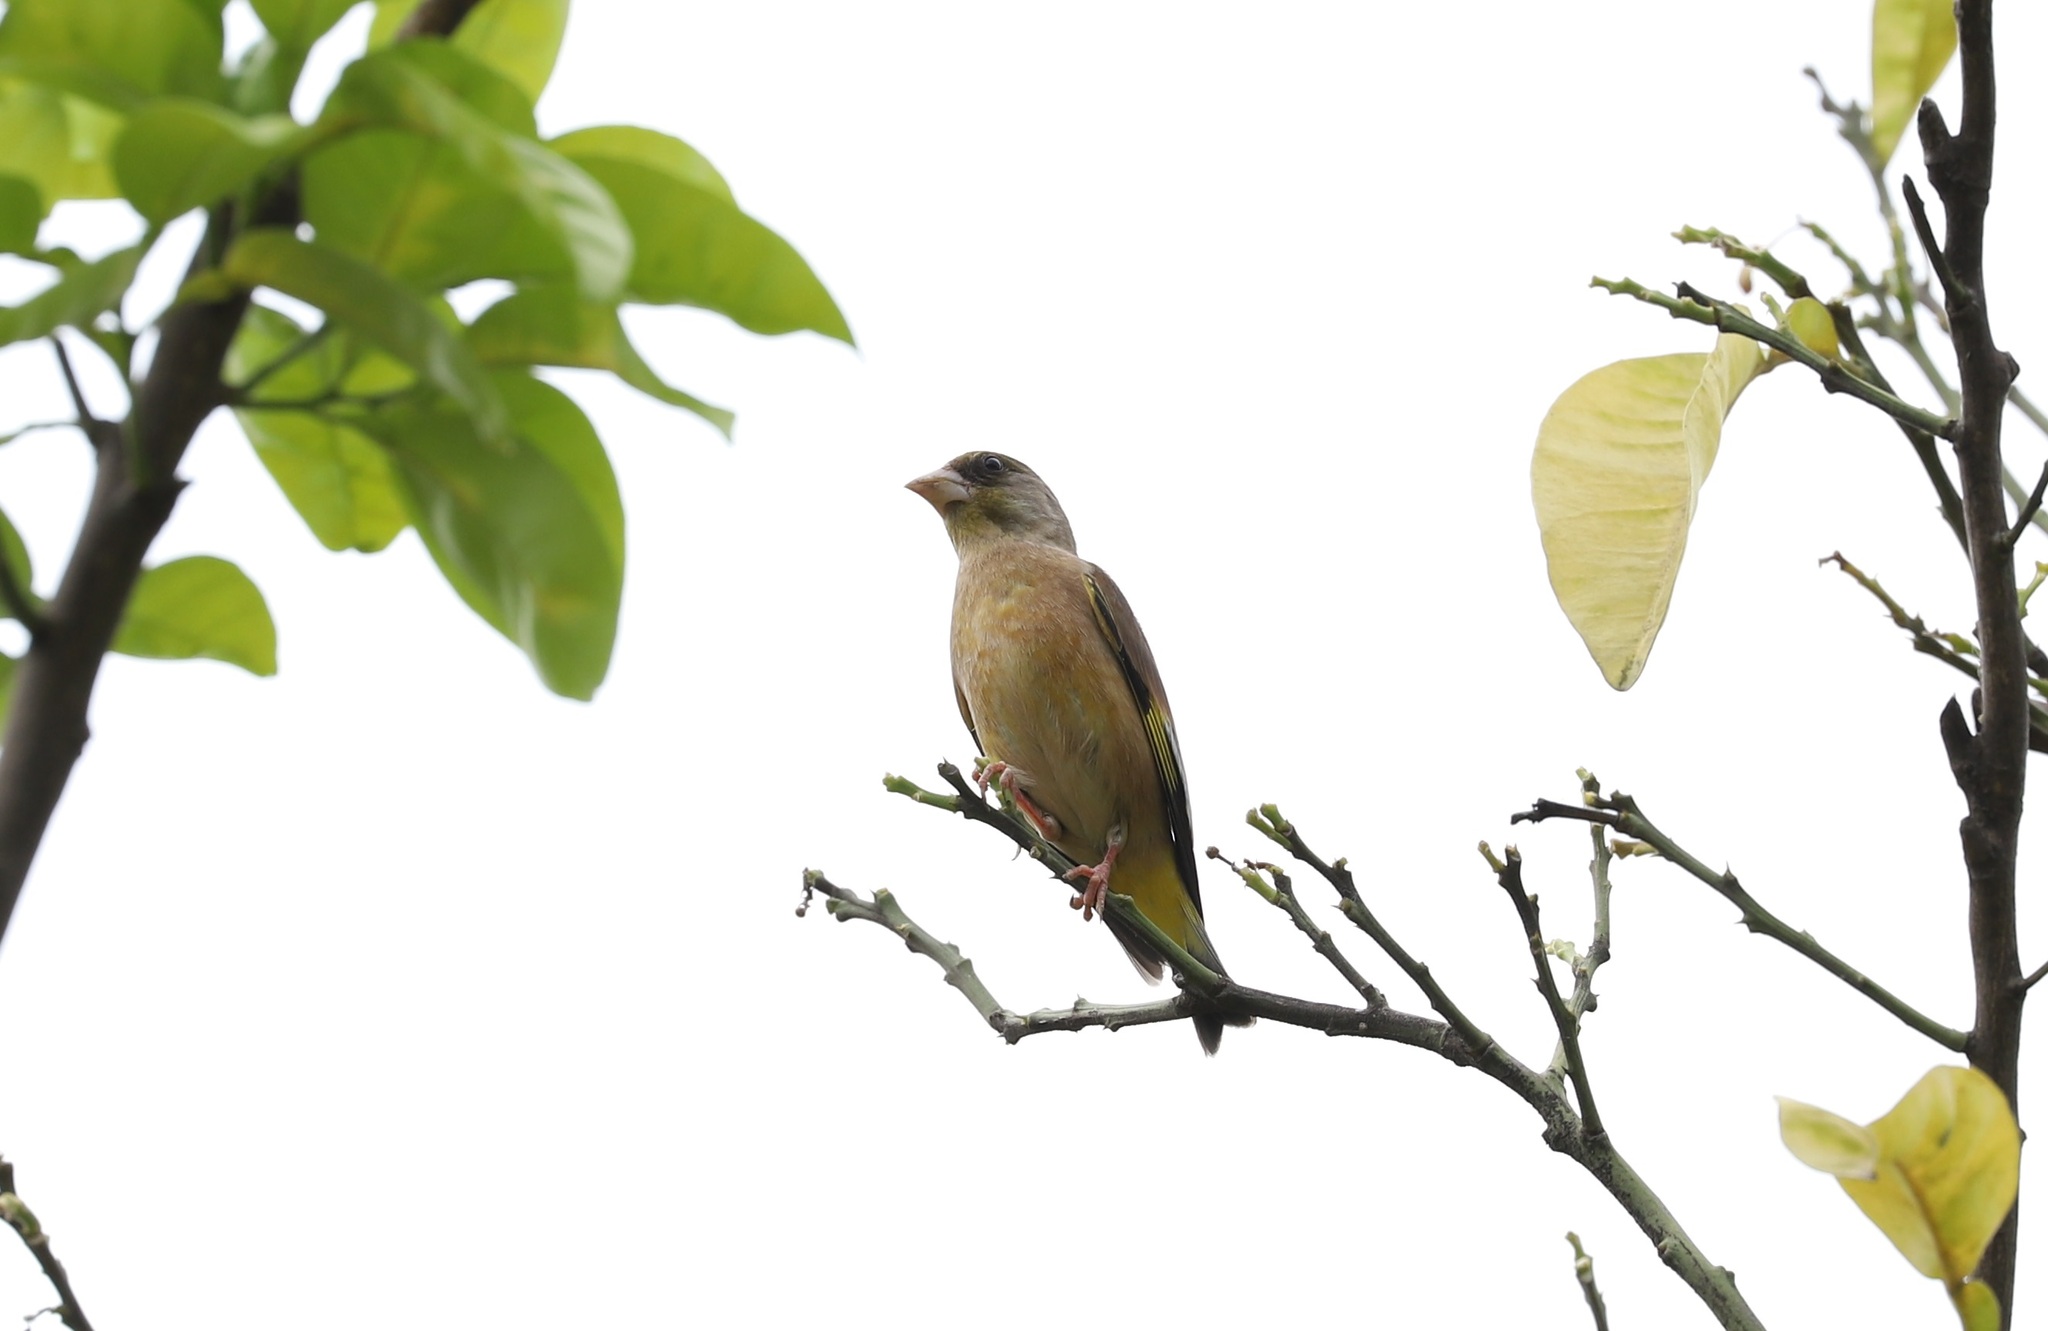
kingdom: Plantae
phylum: Tracheophyta
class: Liliopsida
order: Poales
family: Poaceae
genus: Chloris
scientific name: Chloris sinica
